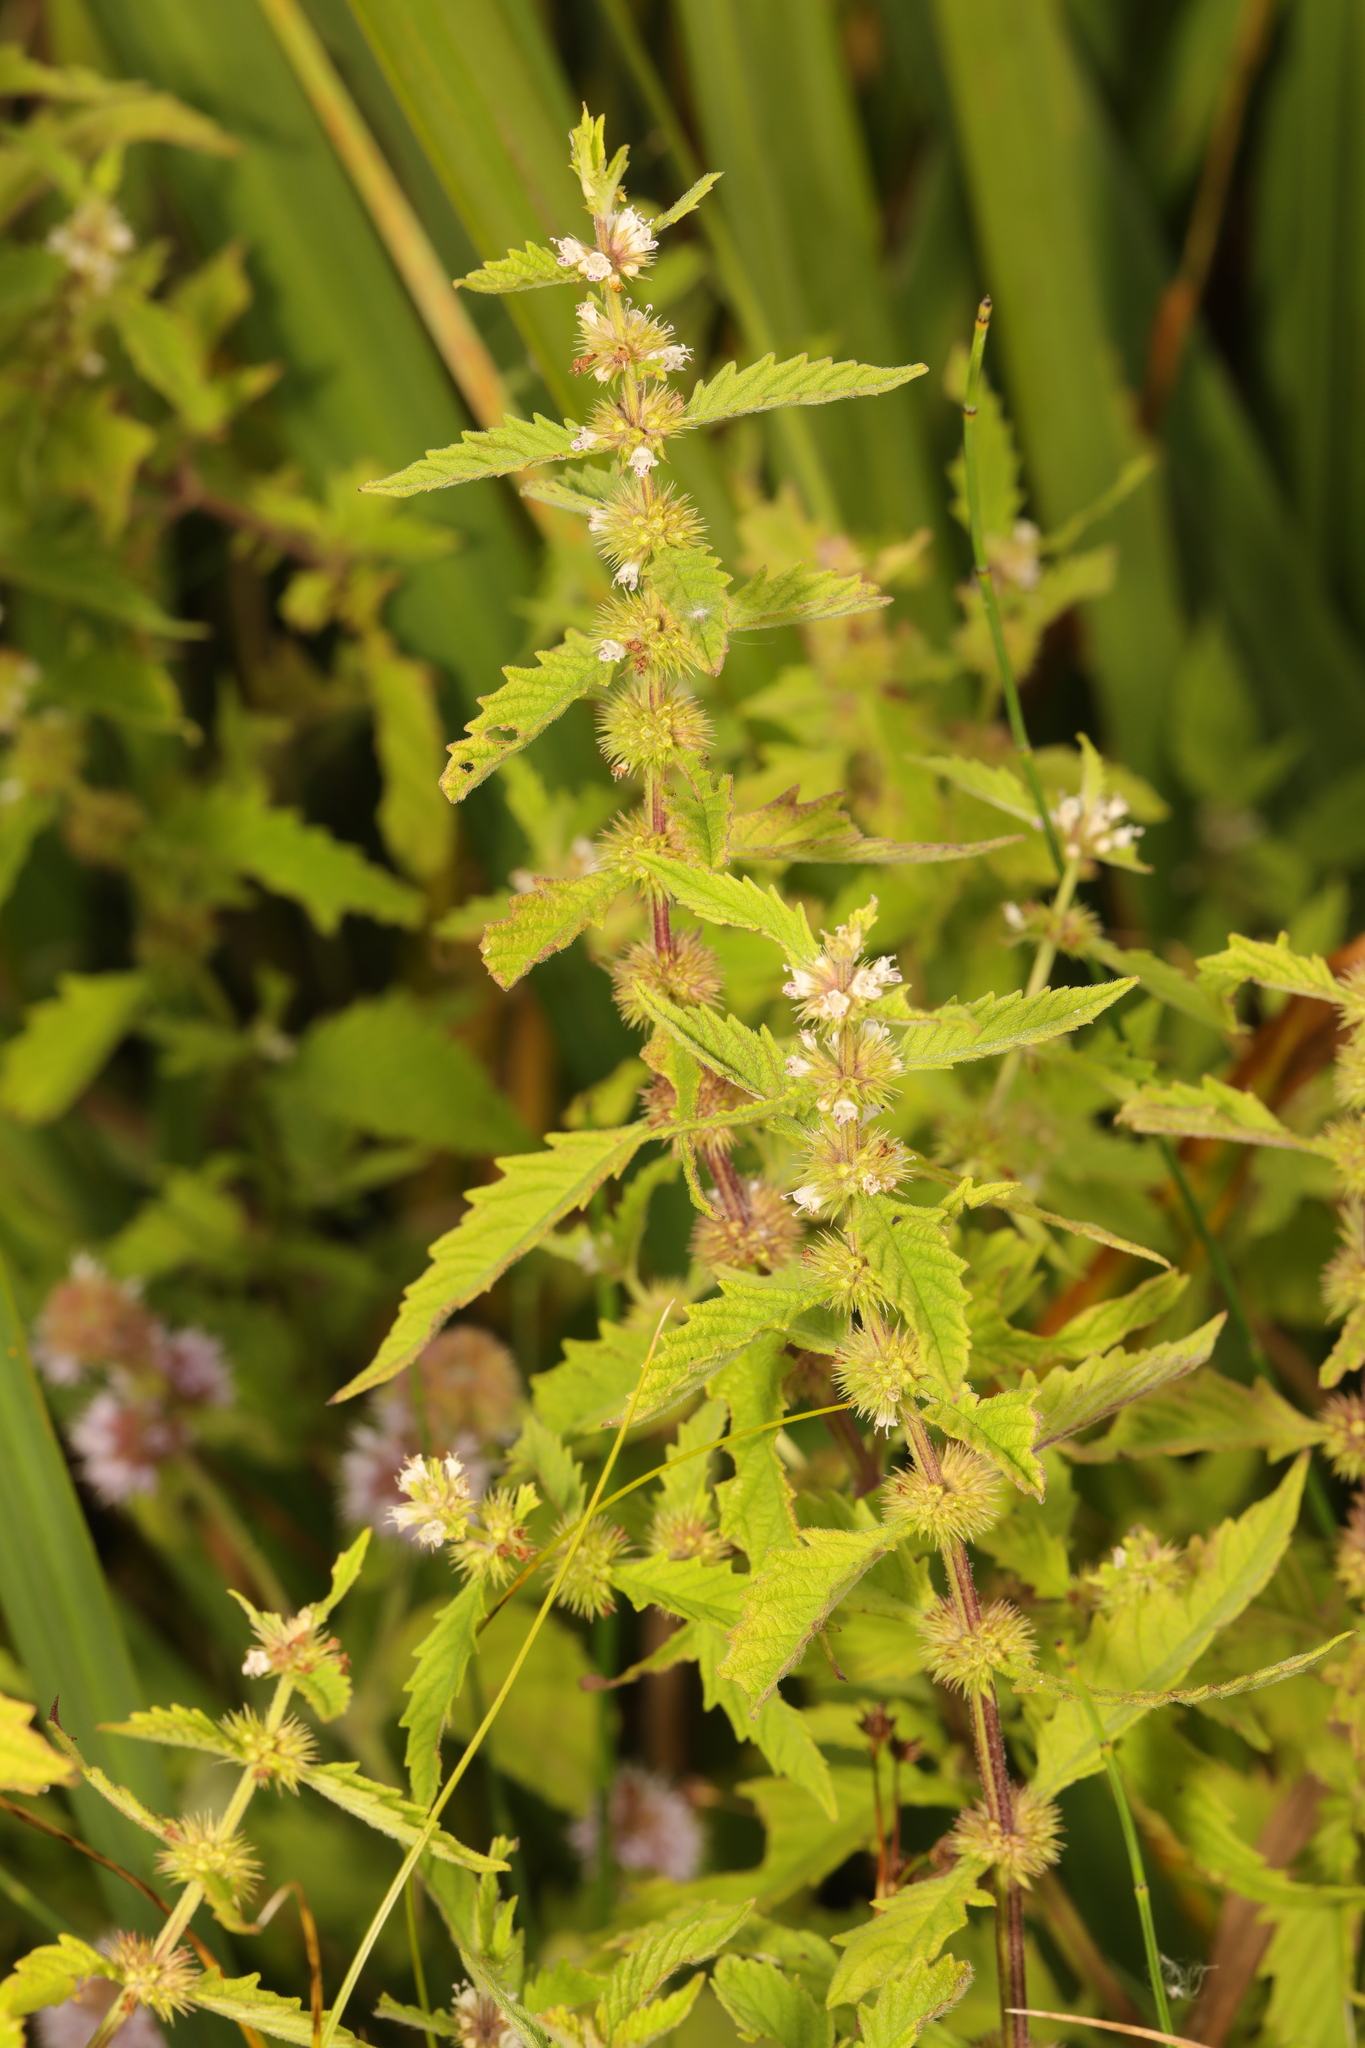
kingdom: Plantae
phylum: Tracheophyta
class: Magnoliopsida
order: Lamiales
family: Lamiaceae
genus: Lycopus
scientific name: Lycopus europaeus
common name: European bugleweed
